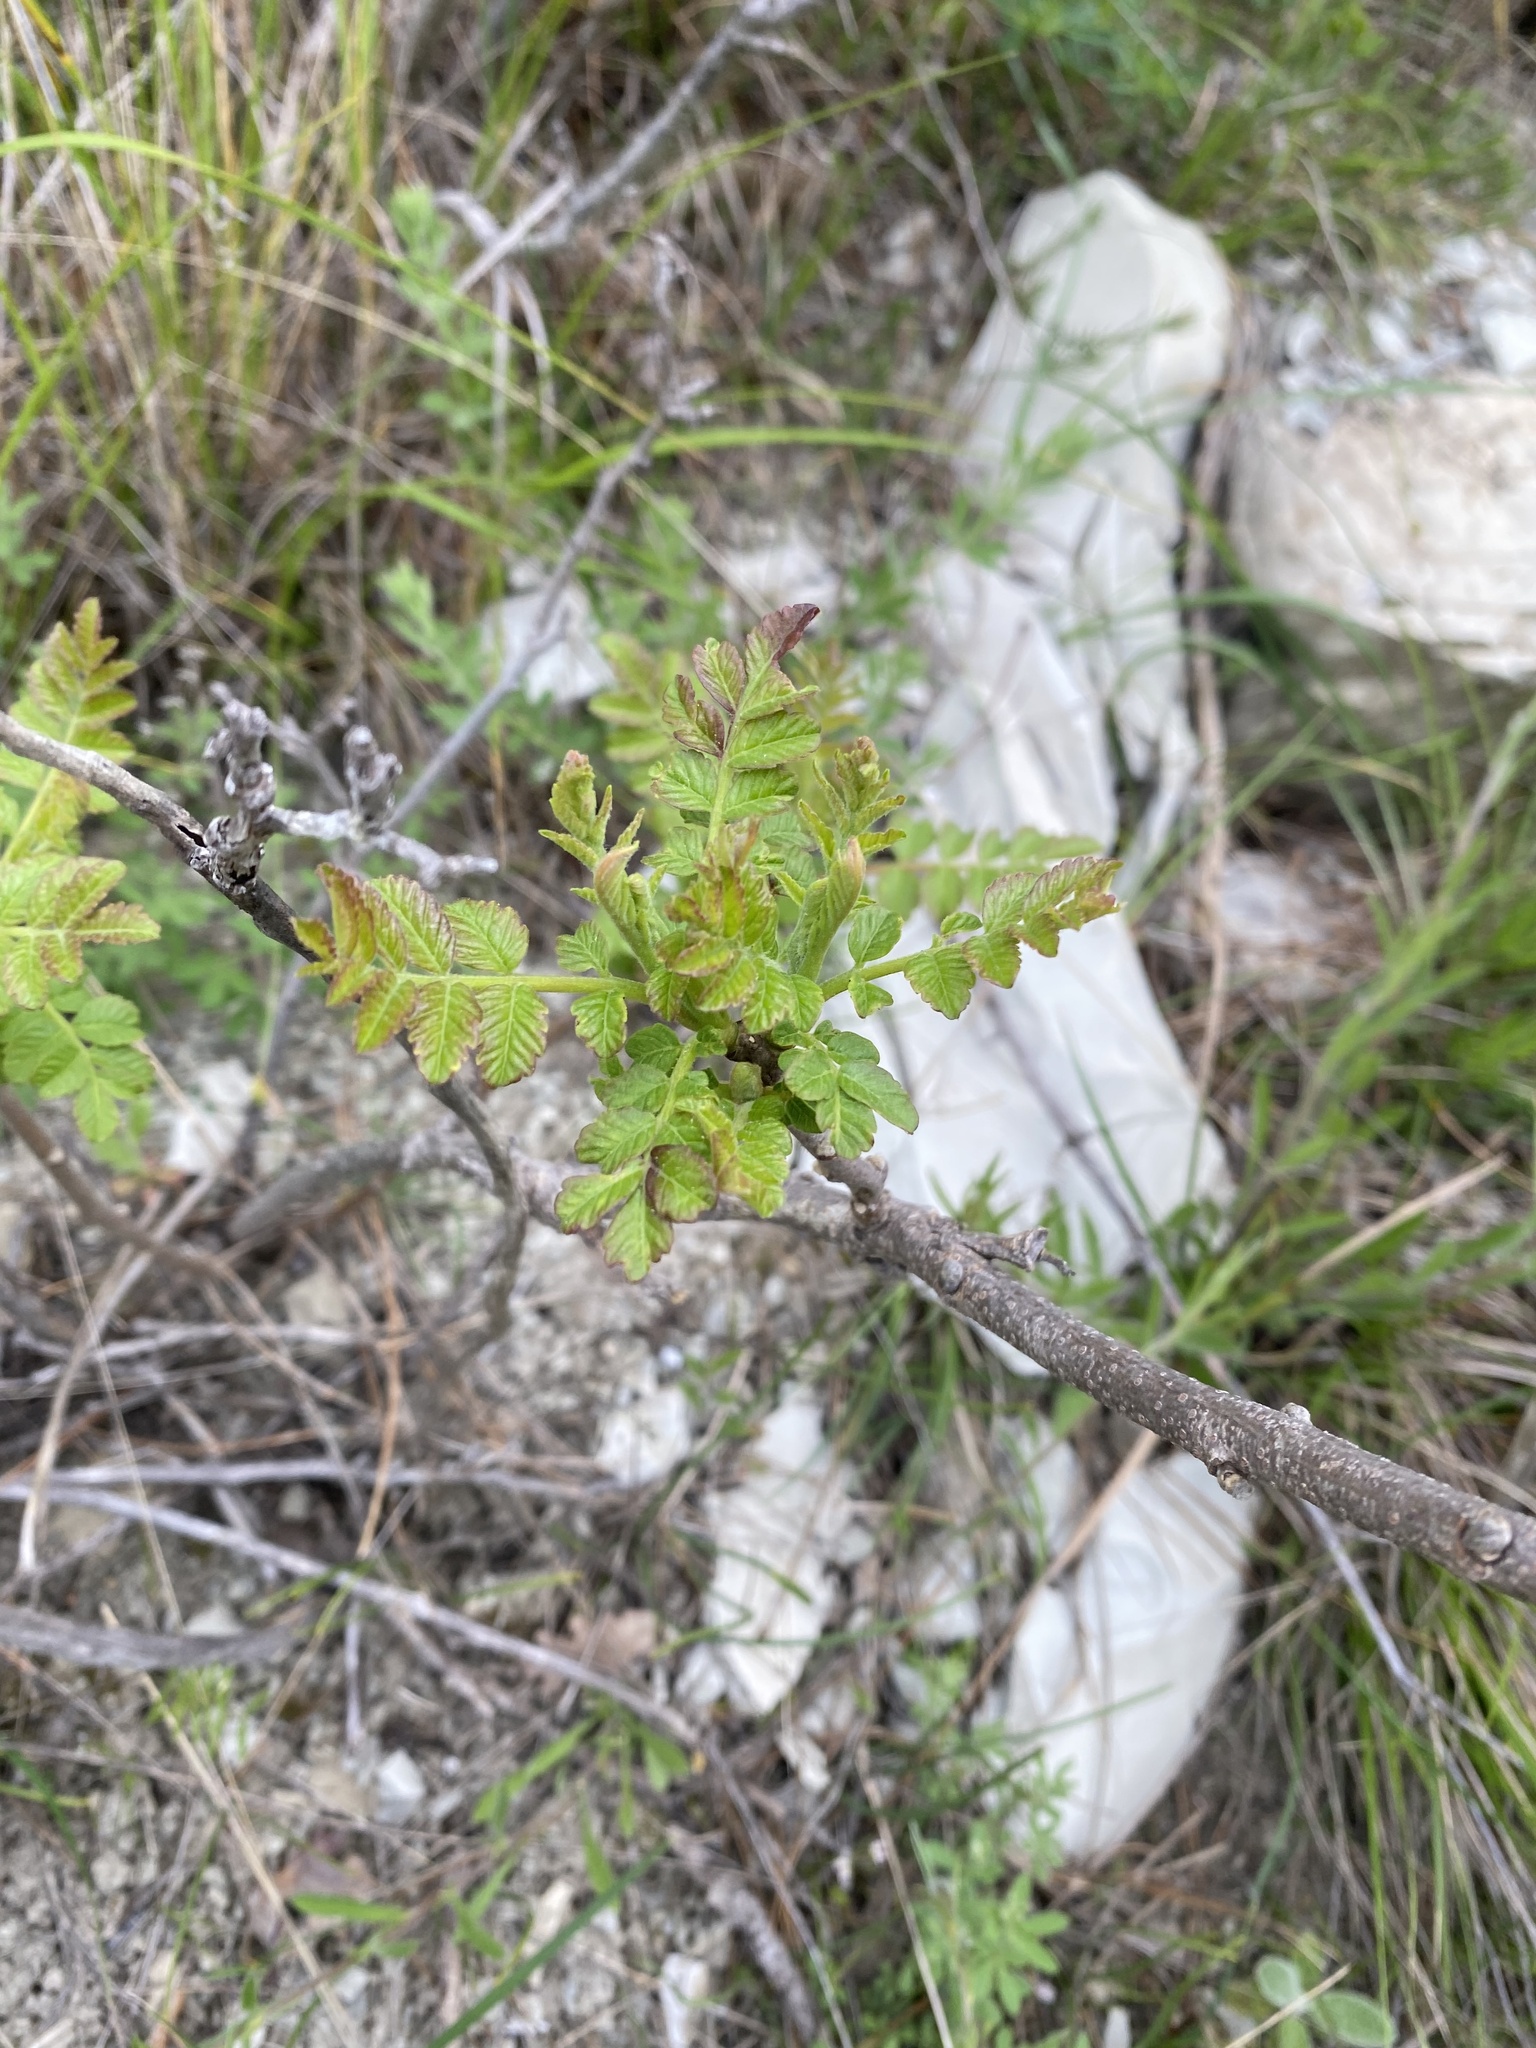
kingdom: Plantae
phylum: Tracheophyta
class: Magnoliopsida
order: Sapindales
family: Anacardiaceae
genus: Rhus
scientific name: Rhus coriaria
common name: Tanner's sumach
